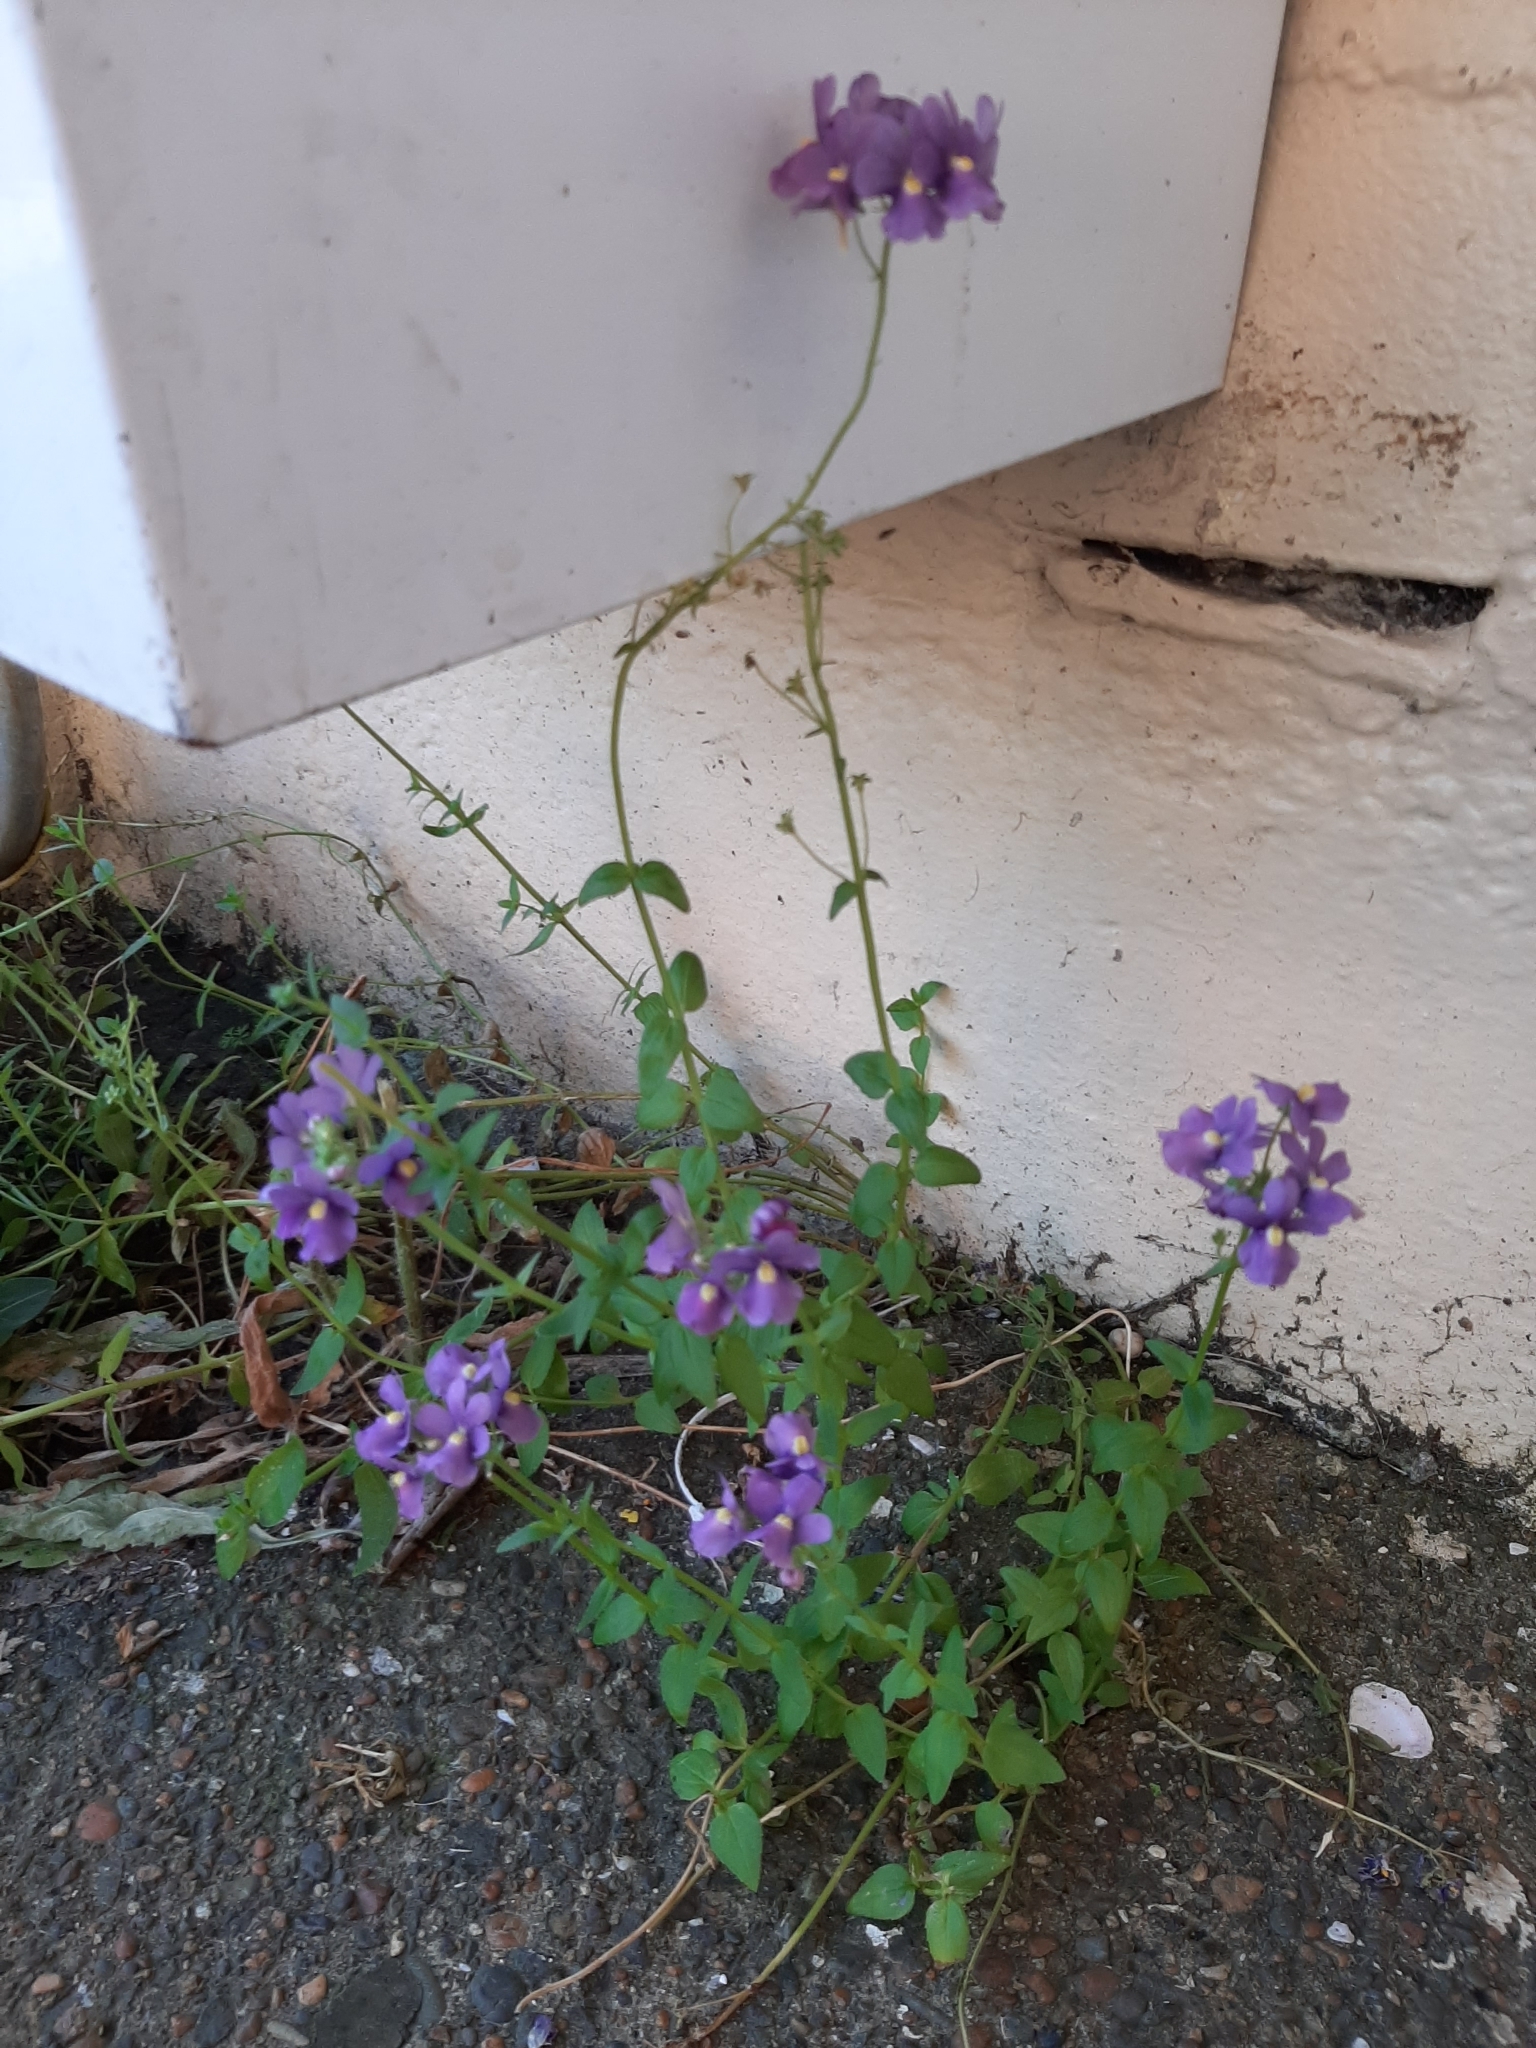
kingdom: Plantae
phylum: Tracheophyta
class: Magnoliopsida
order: Lamiales
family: Scrophulariaceae
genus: Nemesia
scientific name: Nemesia fruticans
